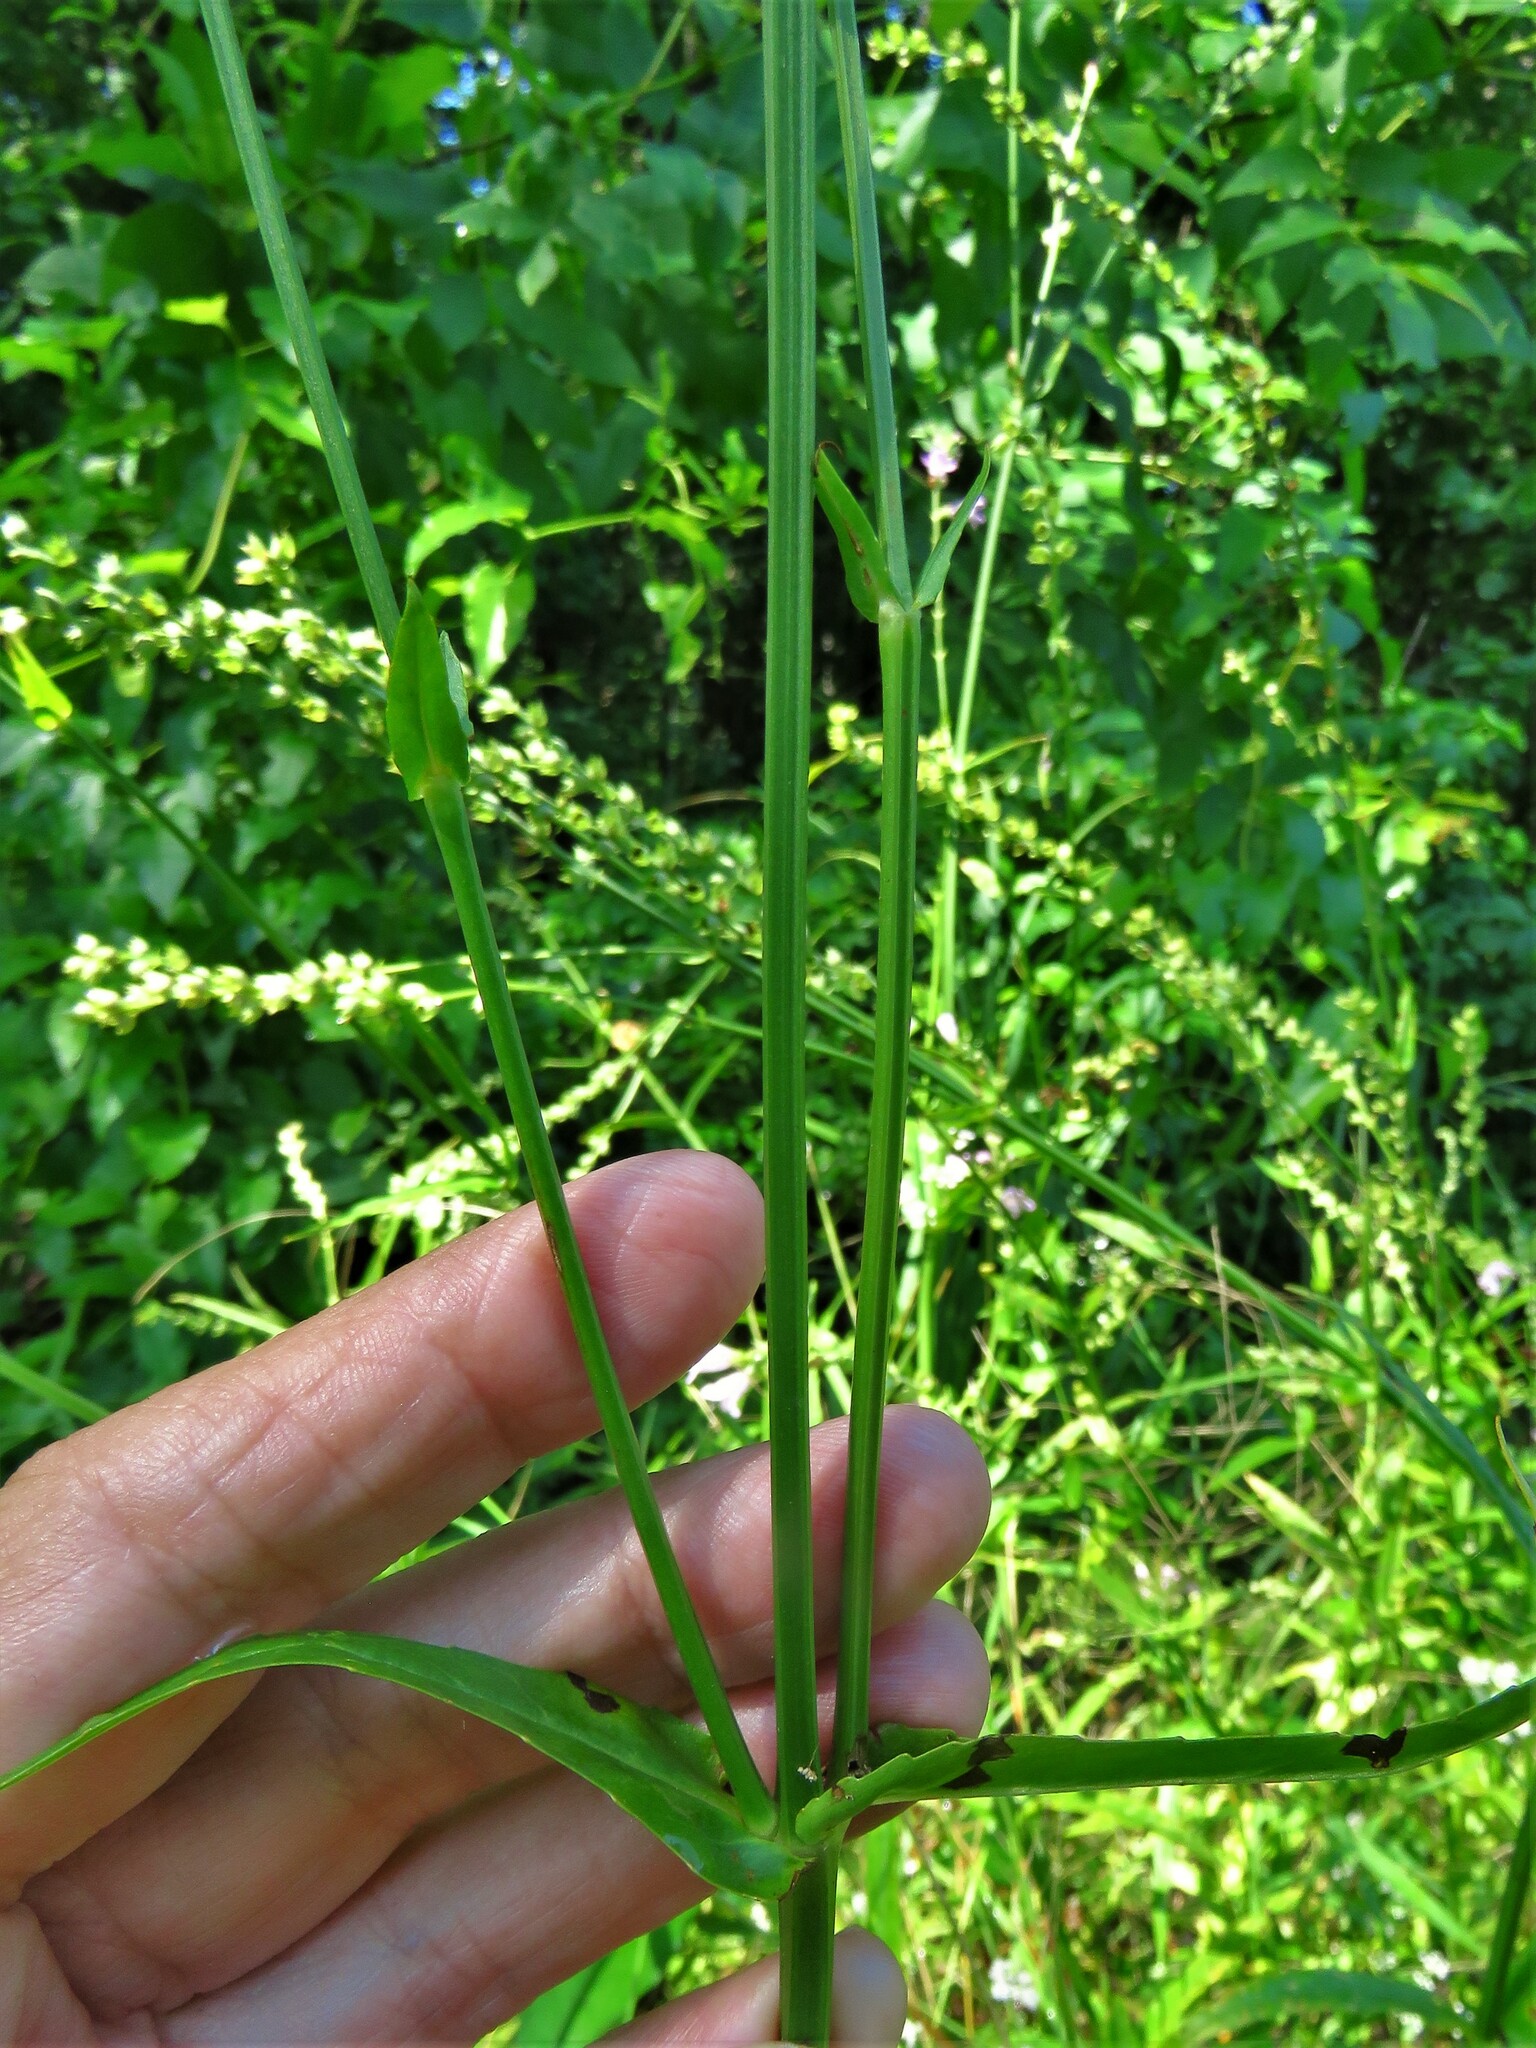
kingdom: Plantae
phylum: Tracheophyta
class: Magnoliopsida
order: Lamiales
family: Lamiaceae
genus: Physostegia
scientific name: Physostegia intermedia
